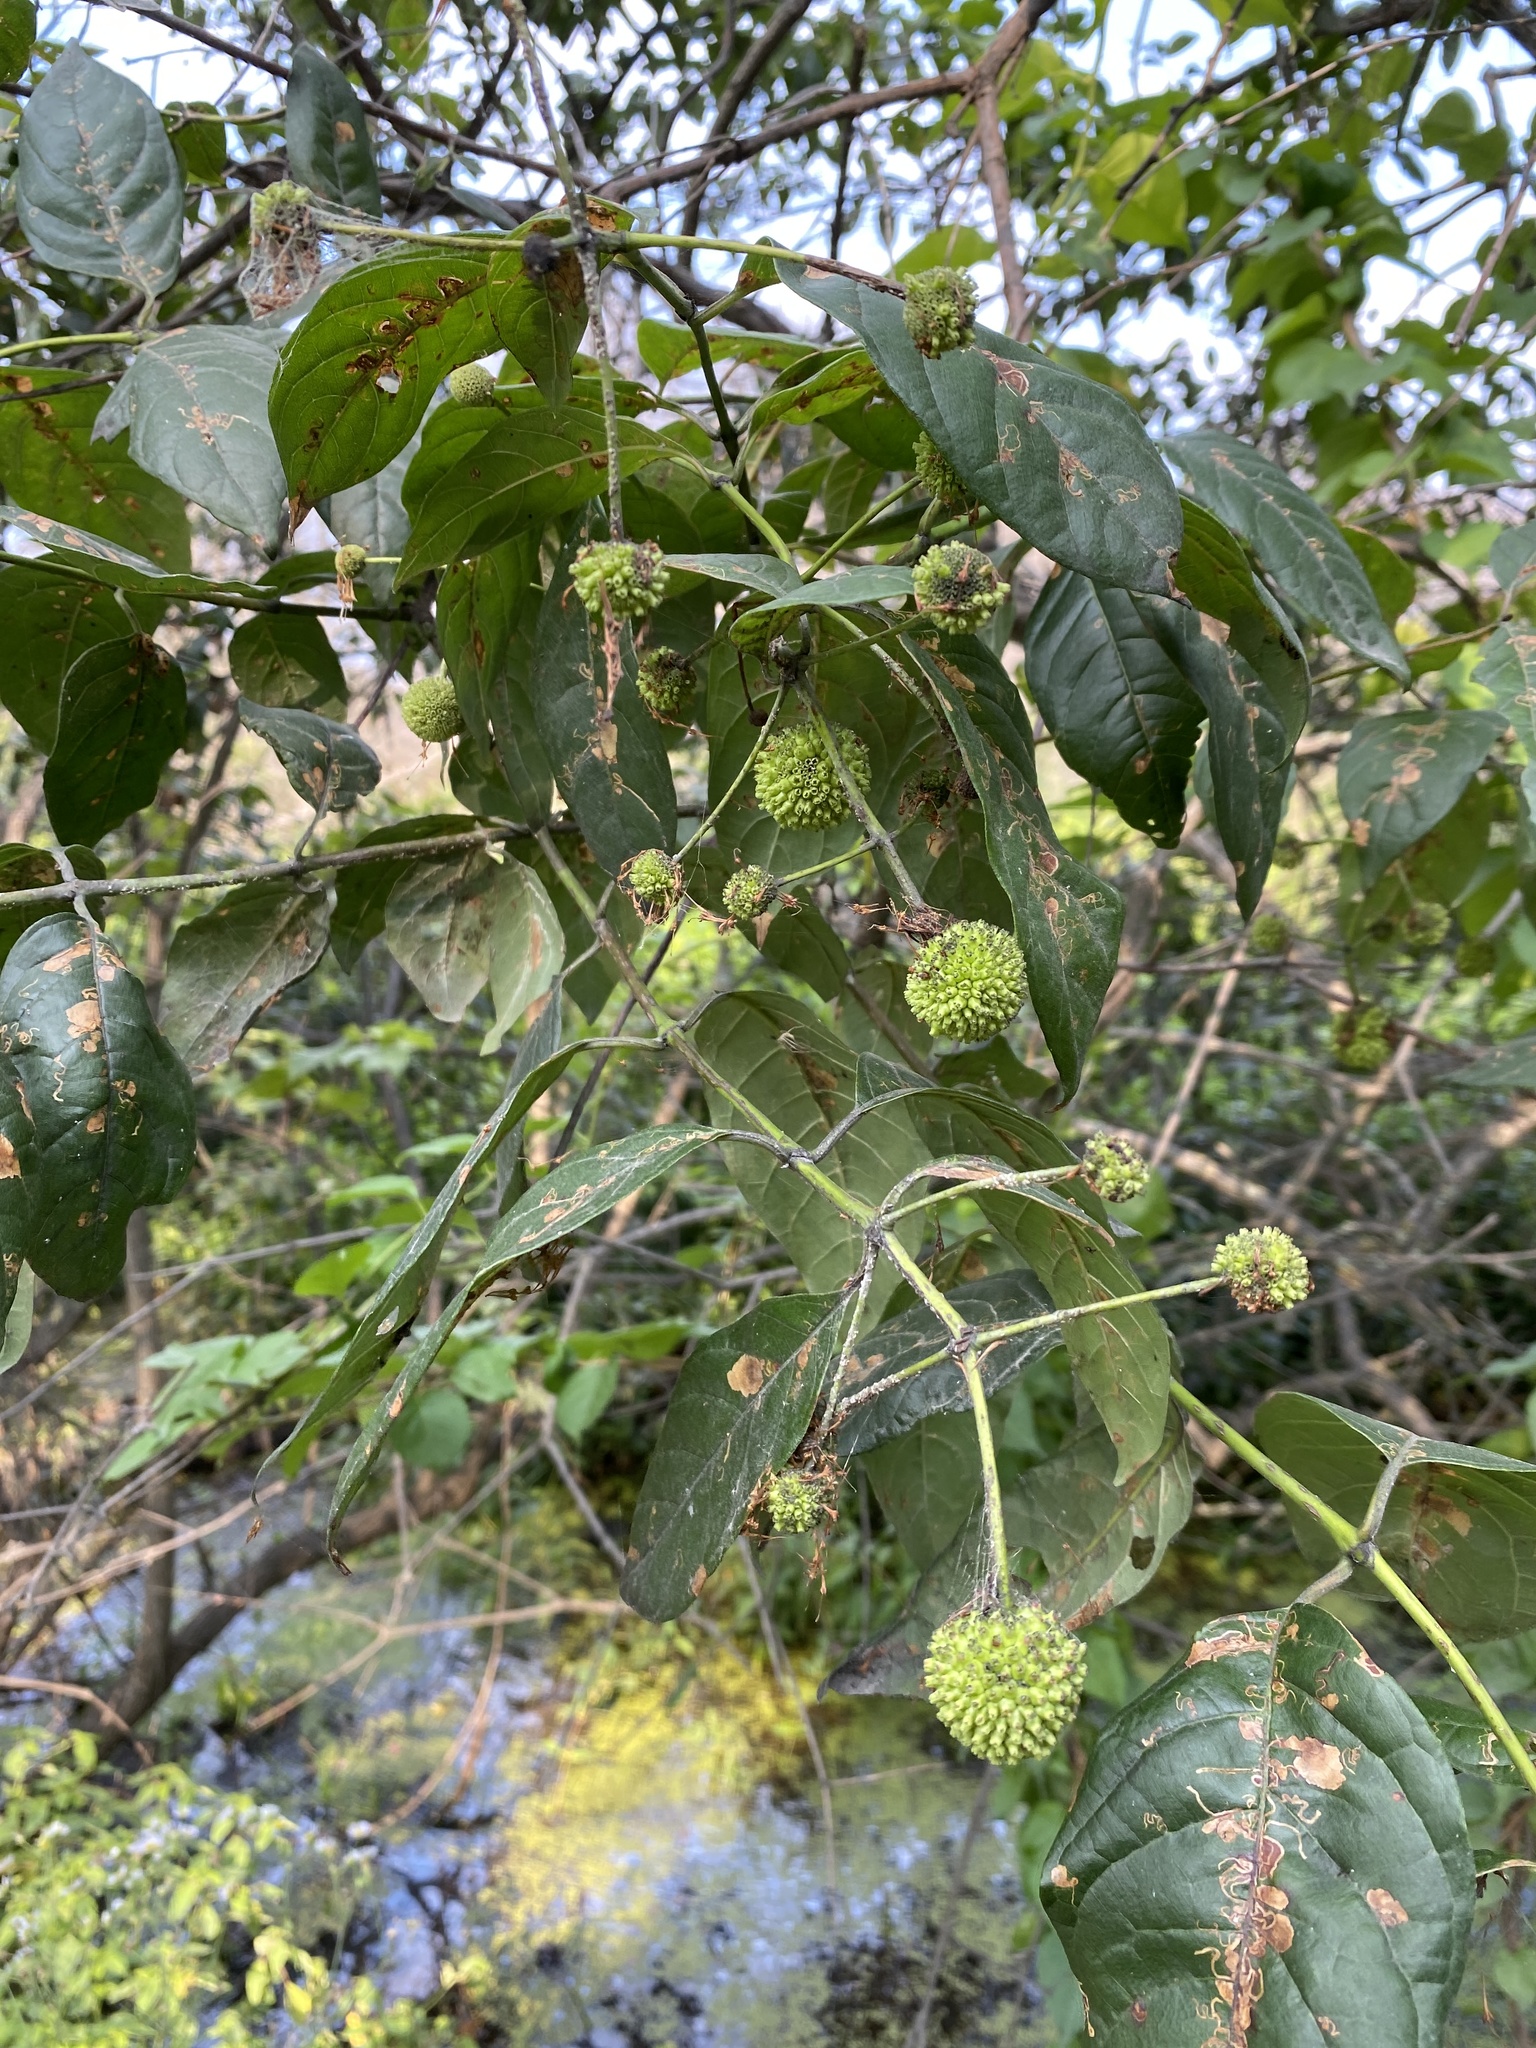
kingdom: Plantae
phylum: Tracheophyta
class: Magnoliopsida
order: Gentianales
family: Rubiaceae
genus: Cephalanthus
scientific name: Cephalanthus occidentalis
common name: Button-willow
